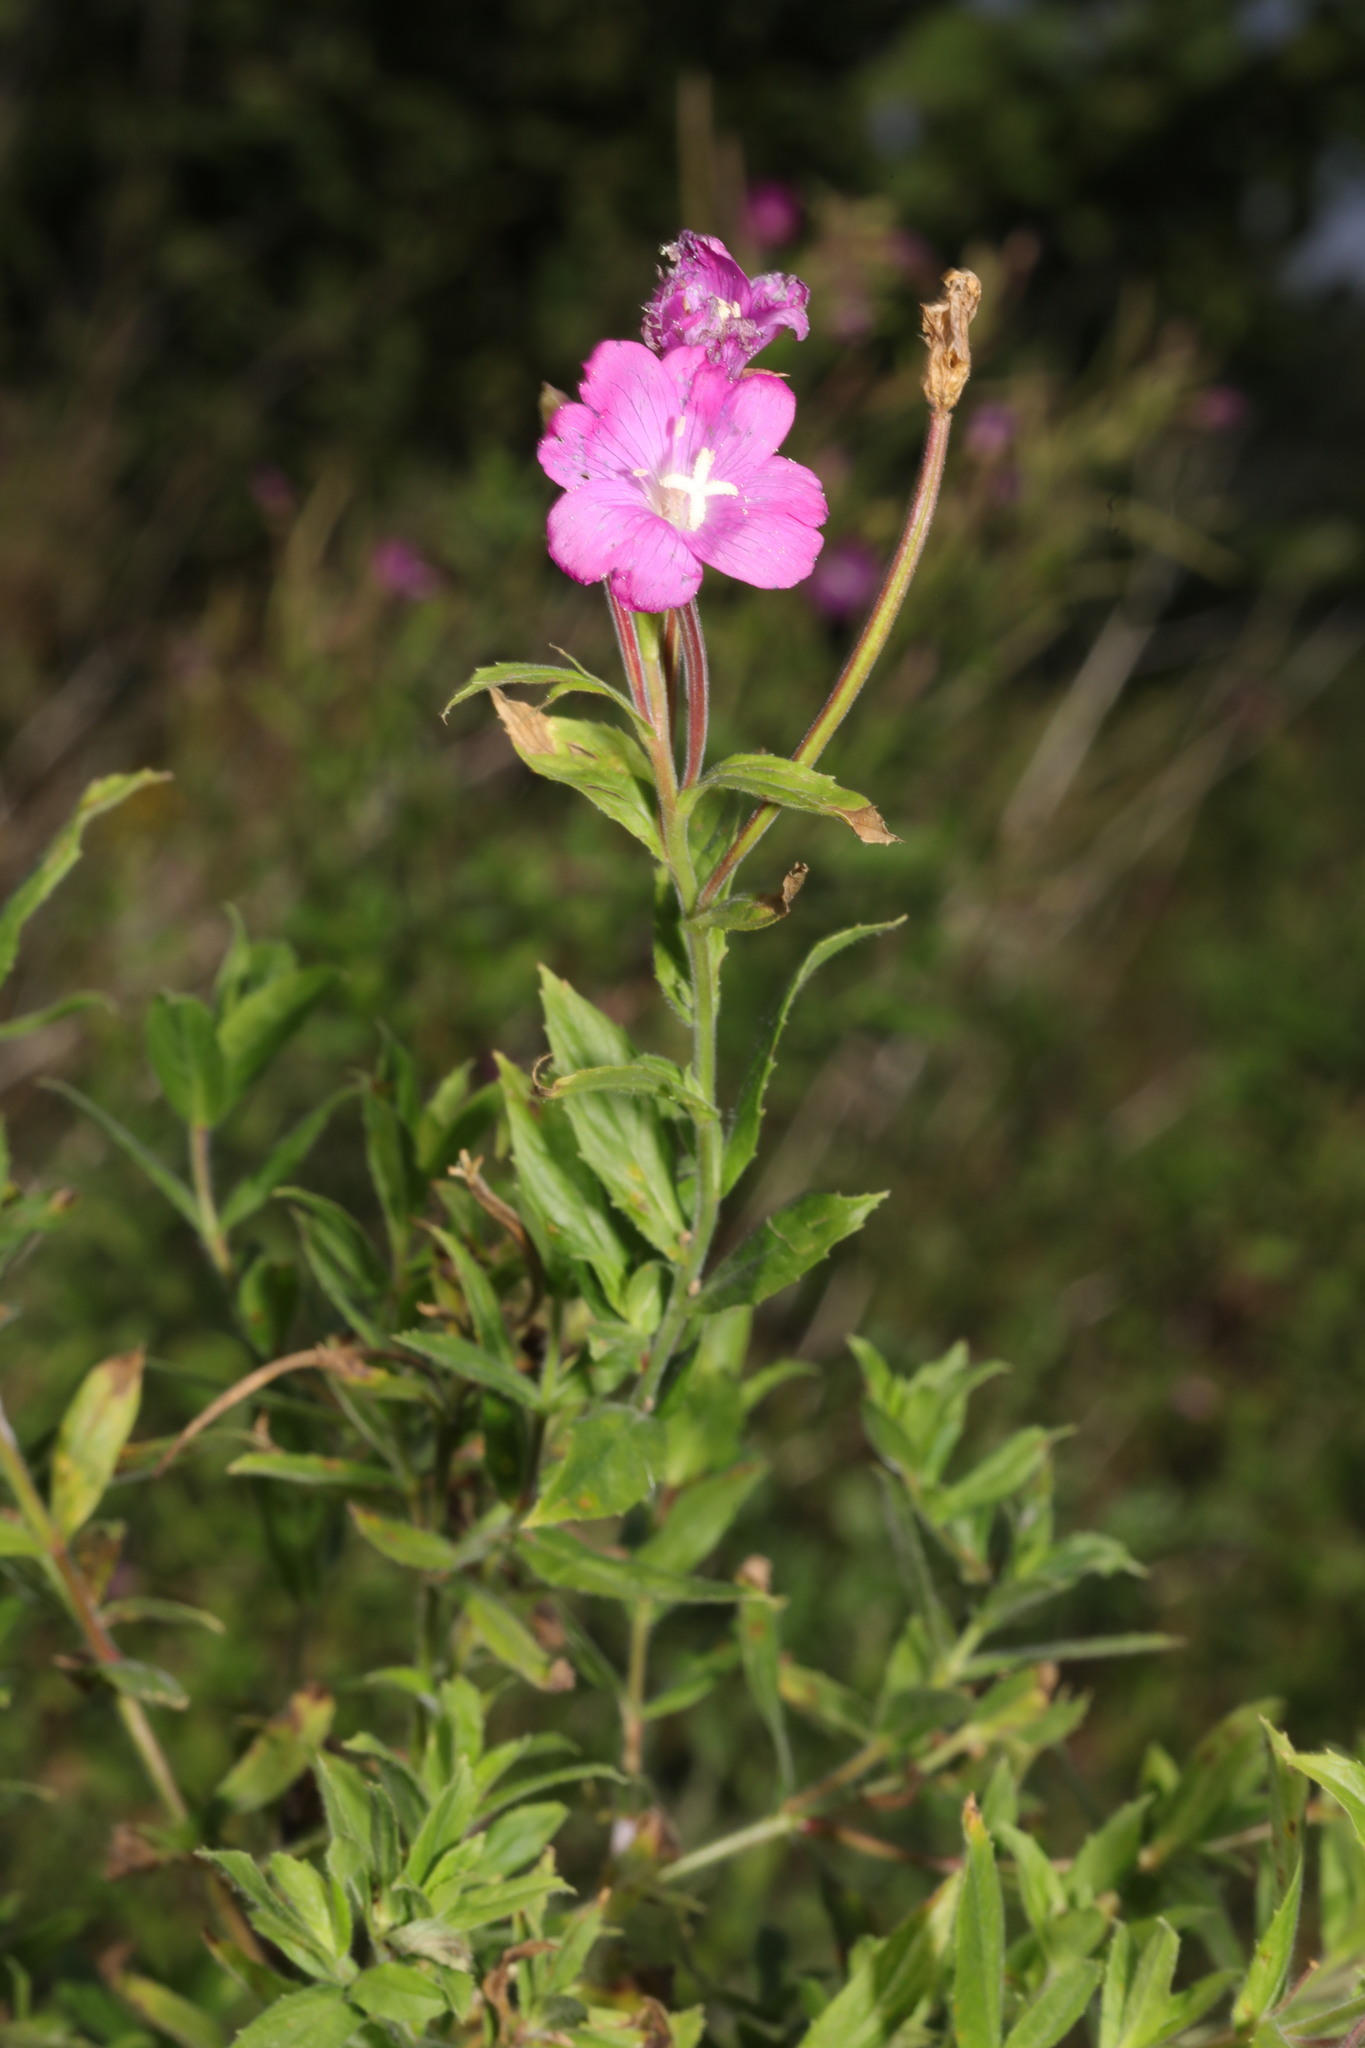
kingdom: Plantae
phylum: Tracheophyta
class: Magnoliopsida
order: Myrtales
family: Onagraceae
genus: Epilobium
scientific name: Epilobium hirsutum
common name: Great willowherb
